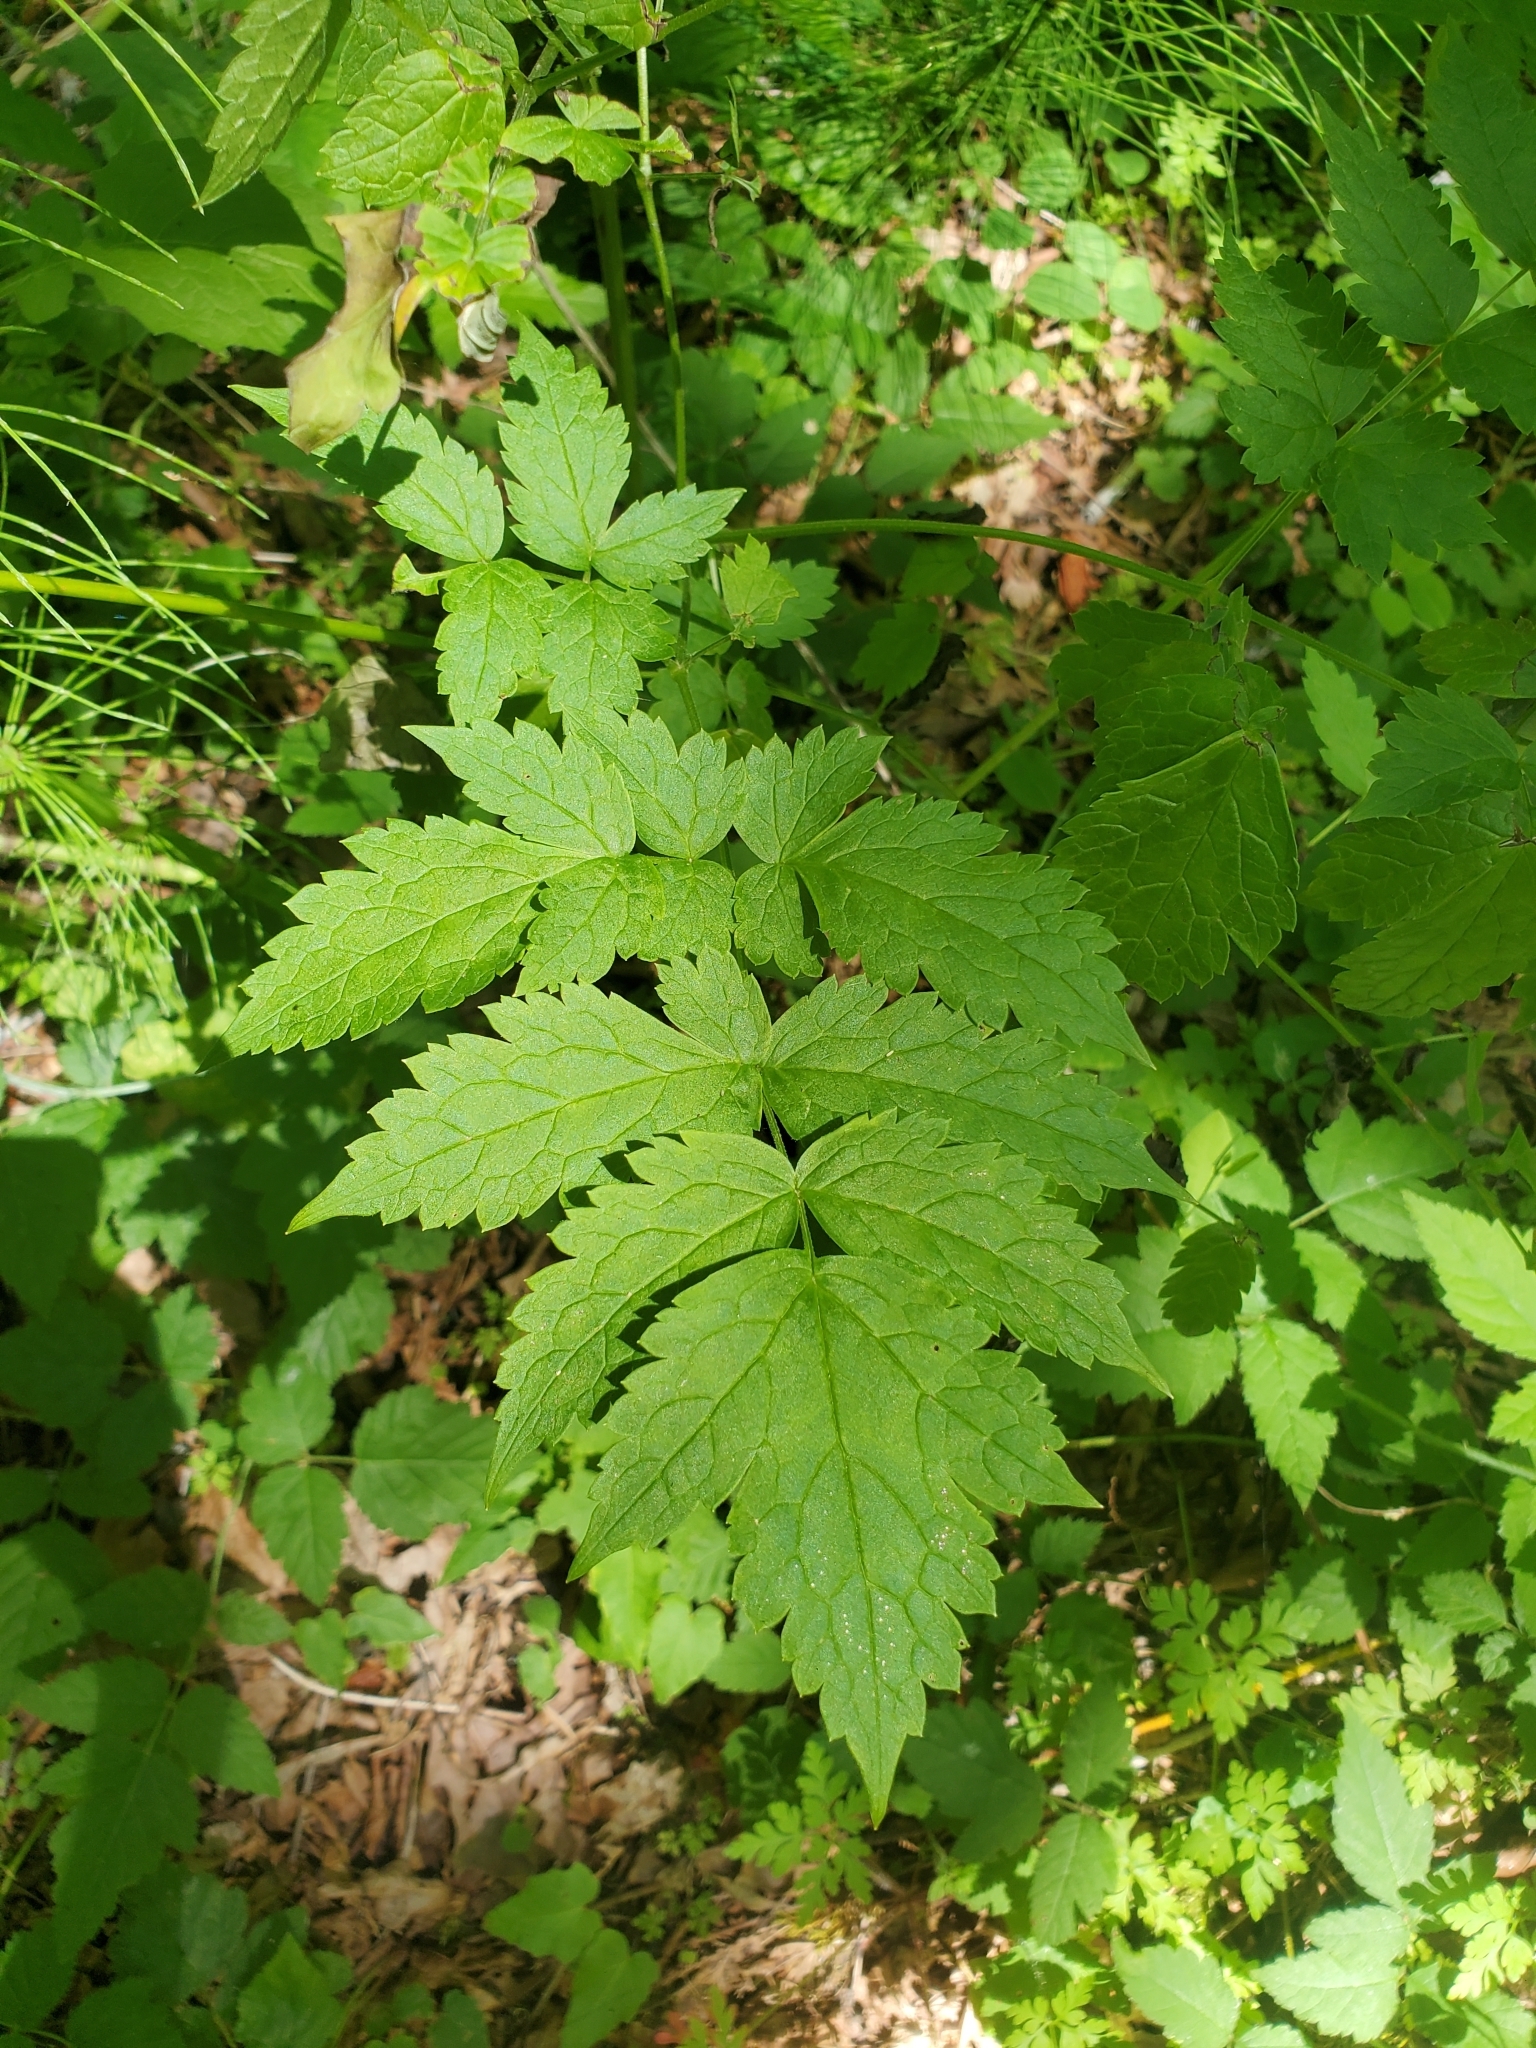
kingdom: Plantae
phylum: Tracheophyta
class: Magnoliopsida
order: Ranunculales
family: Ranunculaceae
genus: Actaea
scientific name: Actaea rubra
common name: Red baneberry
